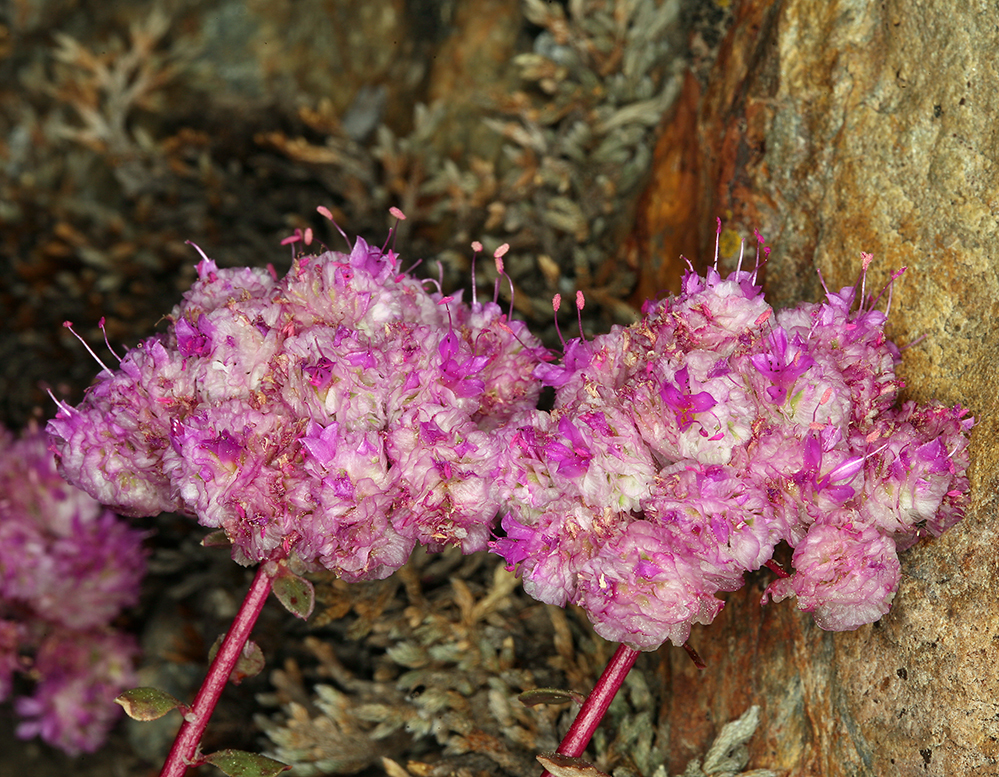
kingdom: Plantae
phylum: Tracheophyta
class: Magnoliopsida
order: Caryophyllales
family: Montiaceae
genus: Calyptridium
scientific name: Calyptridium monospermum
